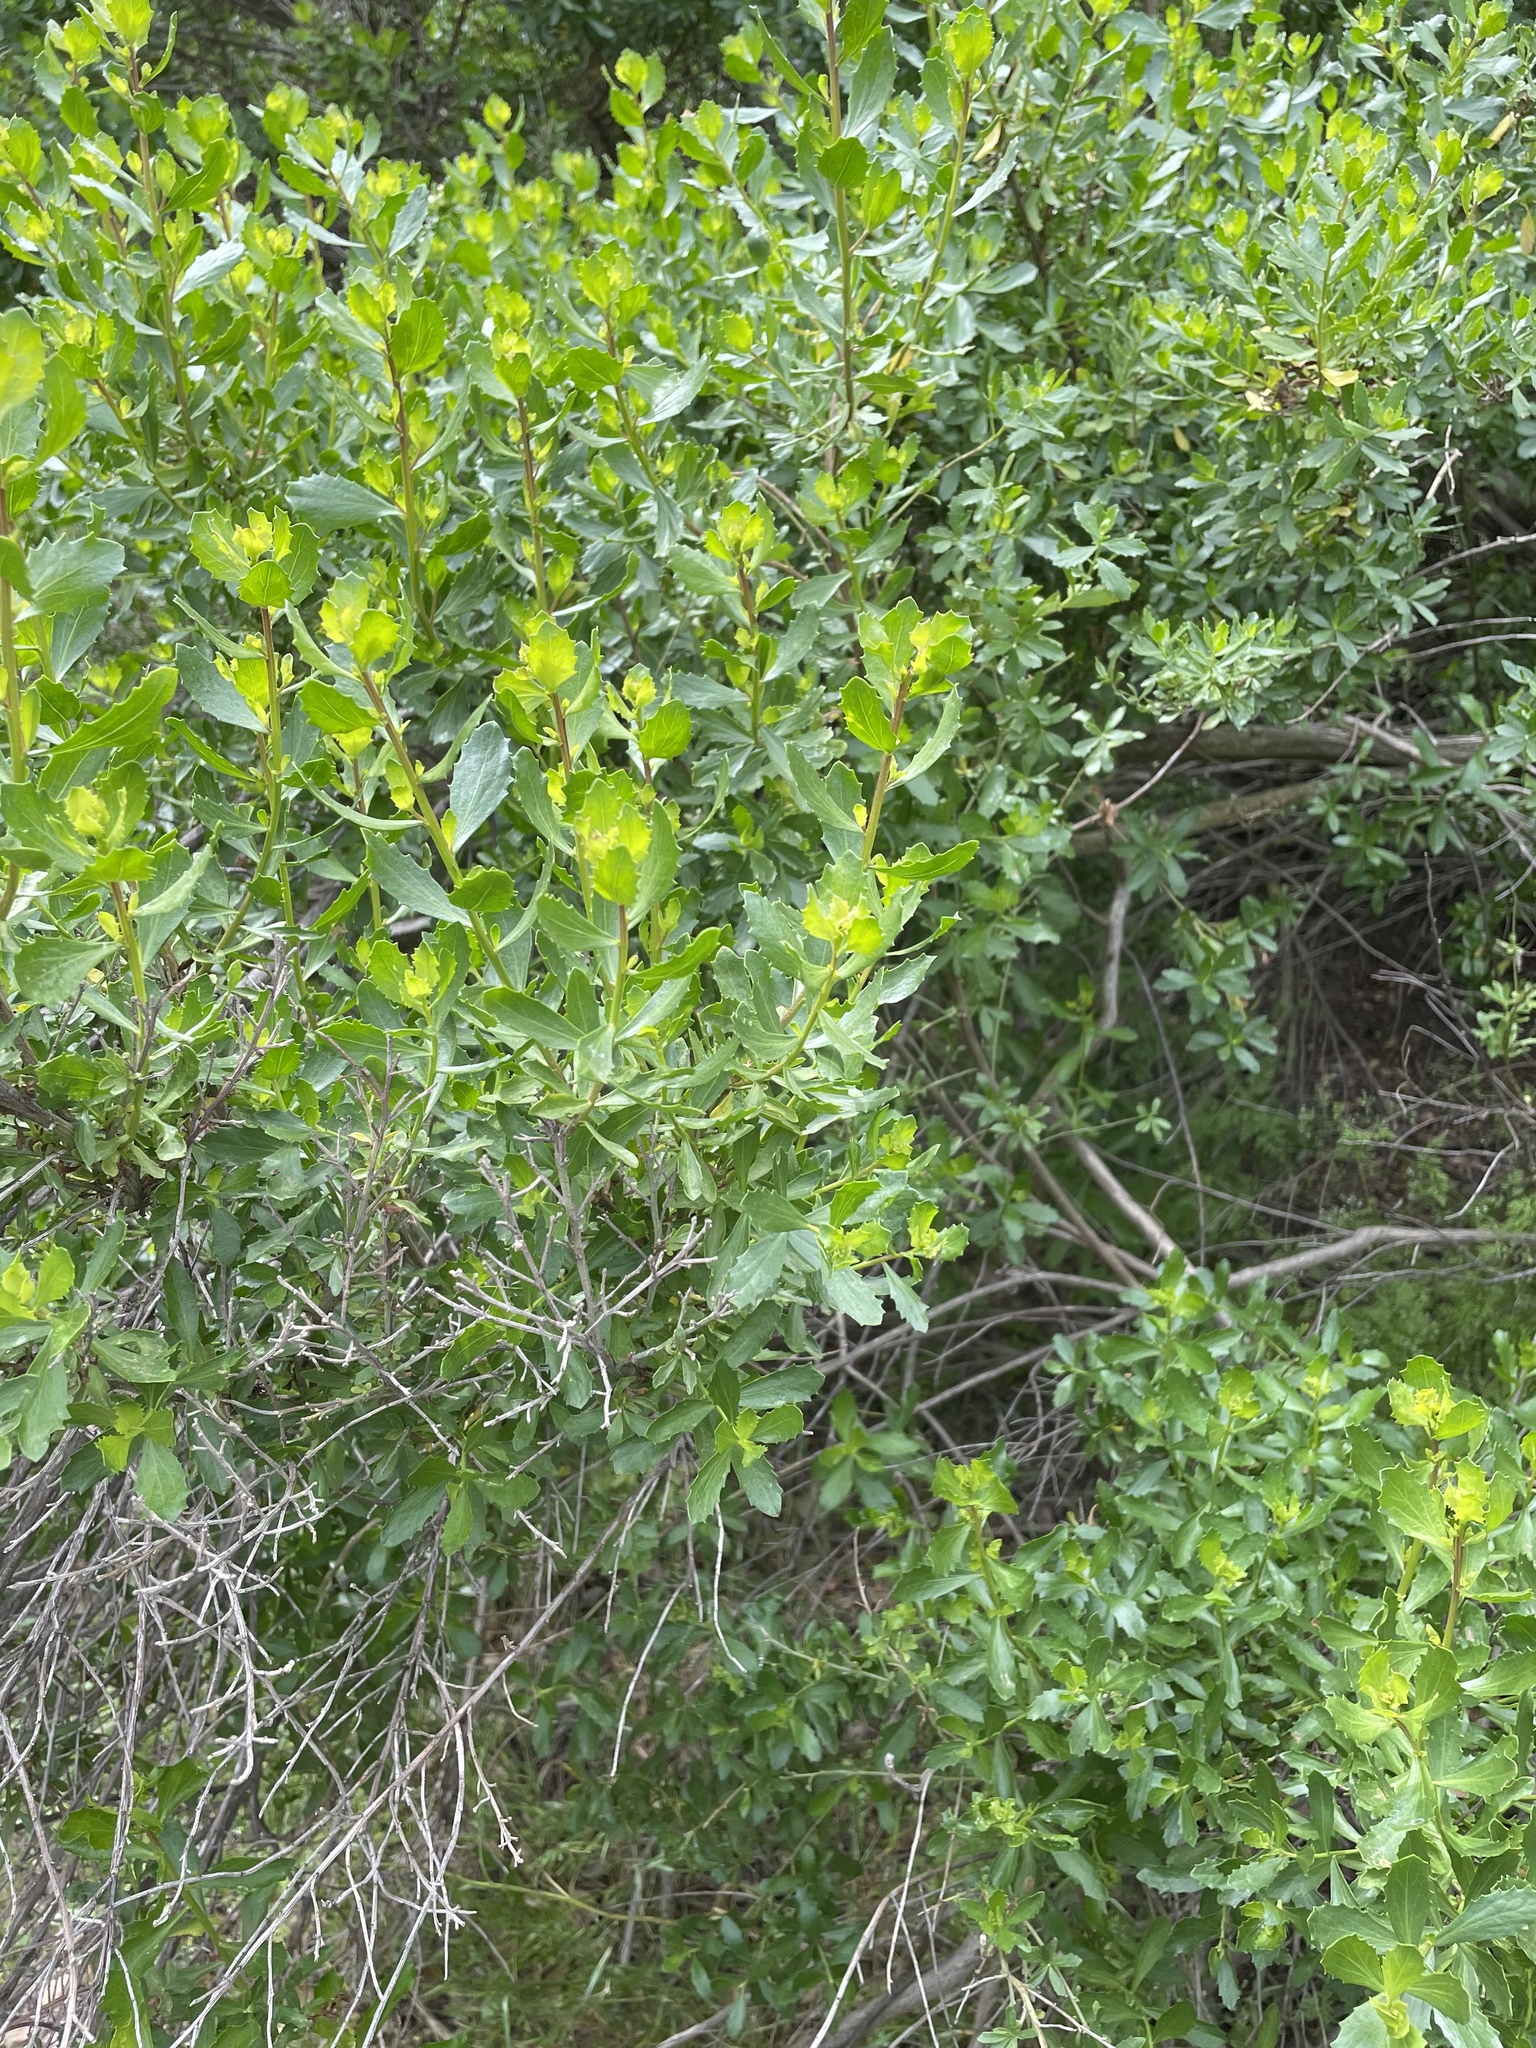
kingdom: Plantae
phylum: Tracheophyta
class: Magnoliopsida
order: Asterales
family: Asteraceae
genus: Baccharis
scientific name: Baccharis pilularis
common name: Coyotebrush
